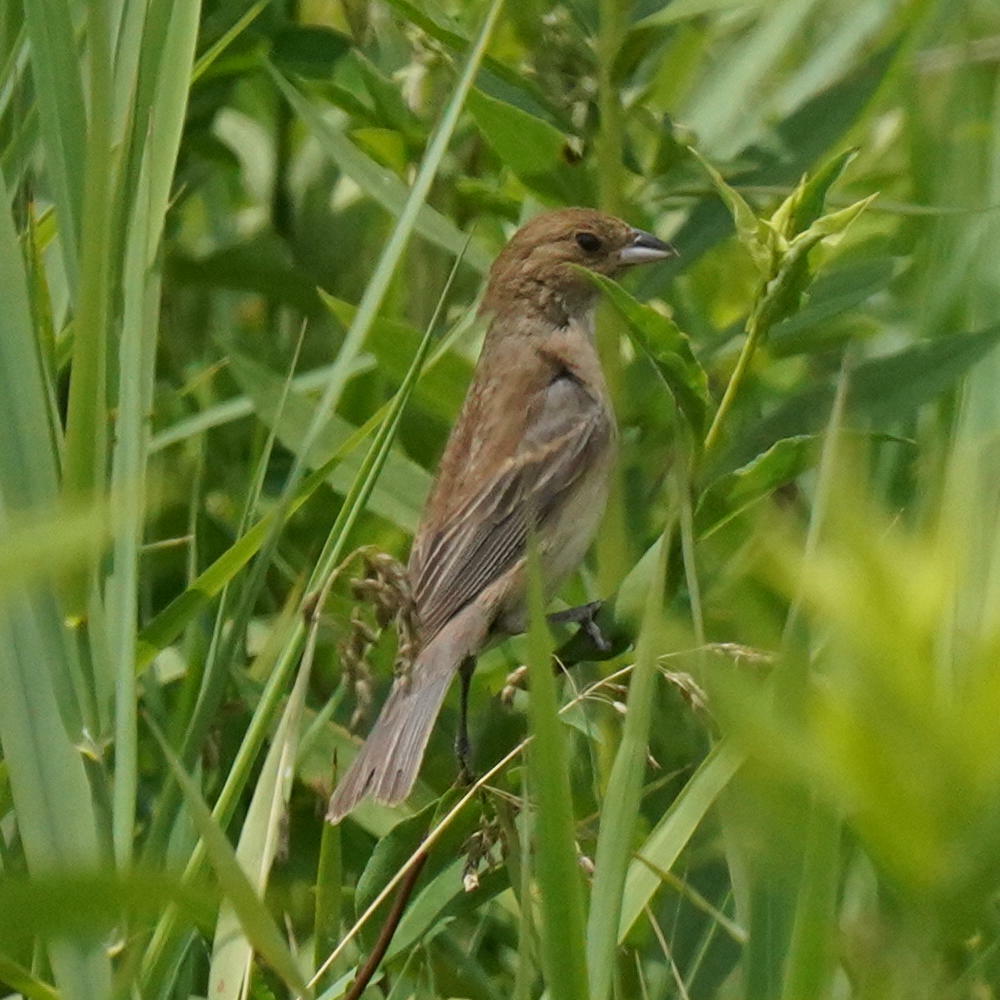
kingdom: Animalia
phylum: Chordata
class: Aves
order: Passeriformes
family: Cardinalidae
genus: Passerina
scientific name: Passerina cyanea
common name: Indigo bunting
